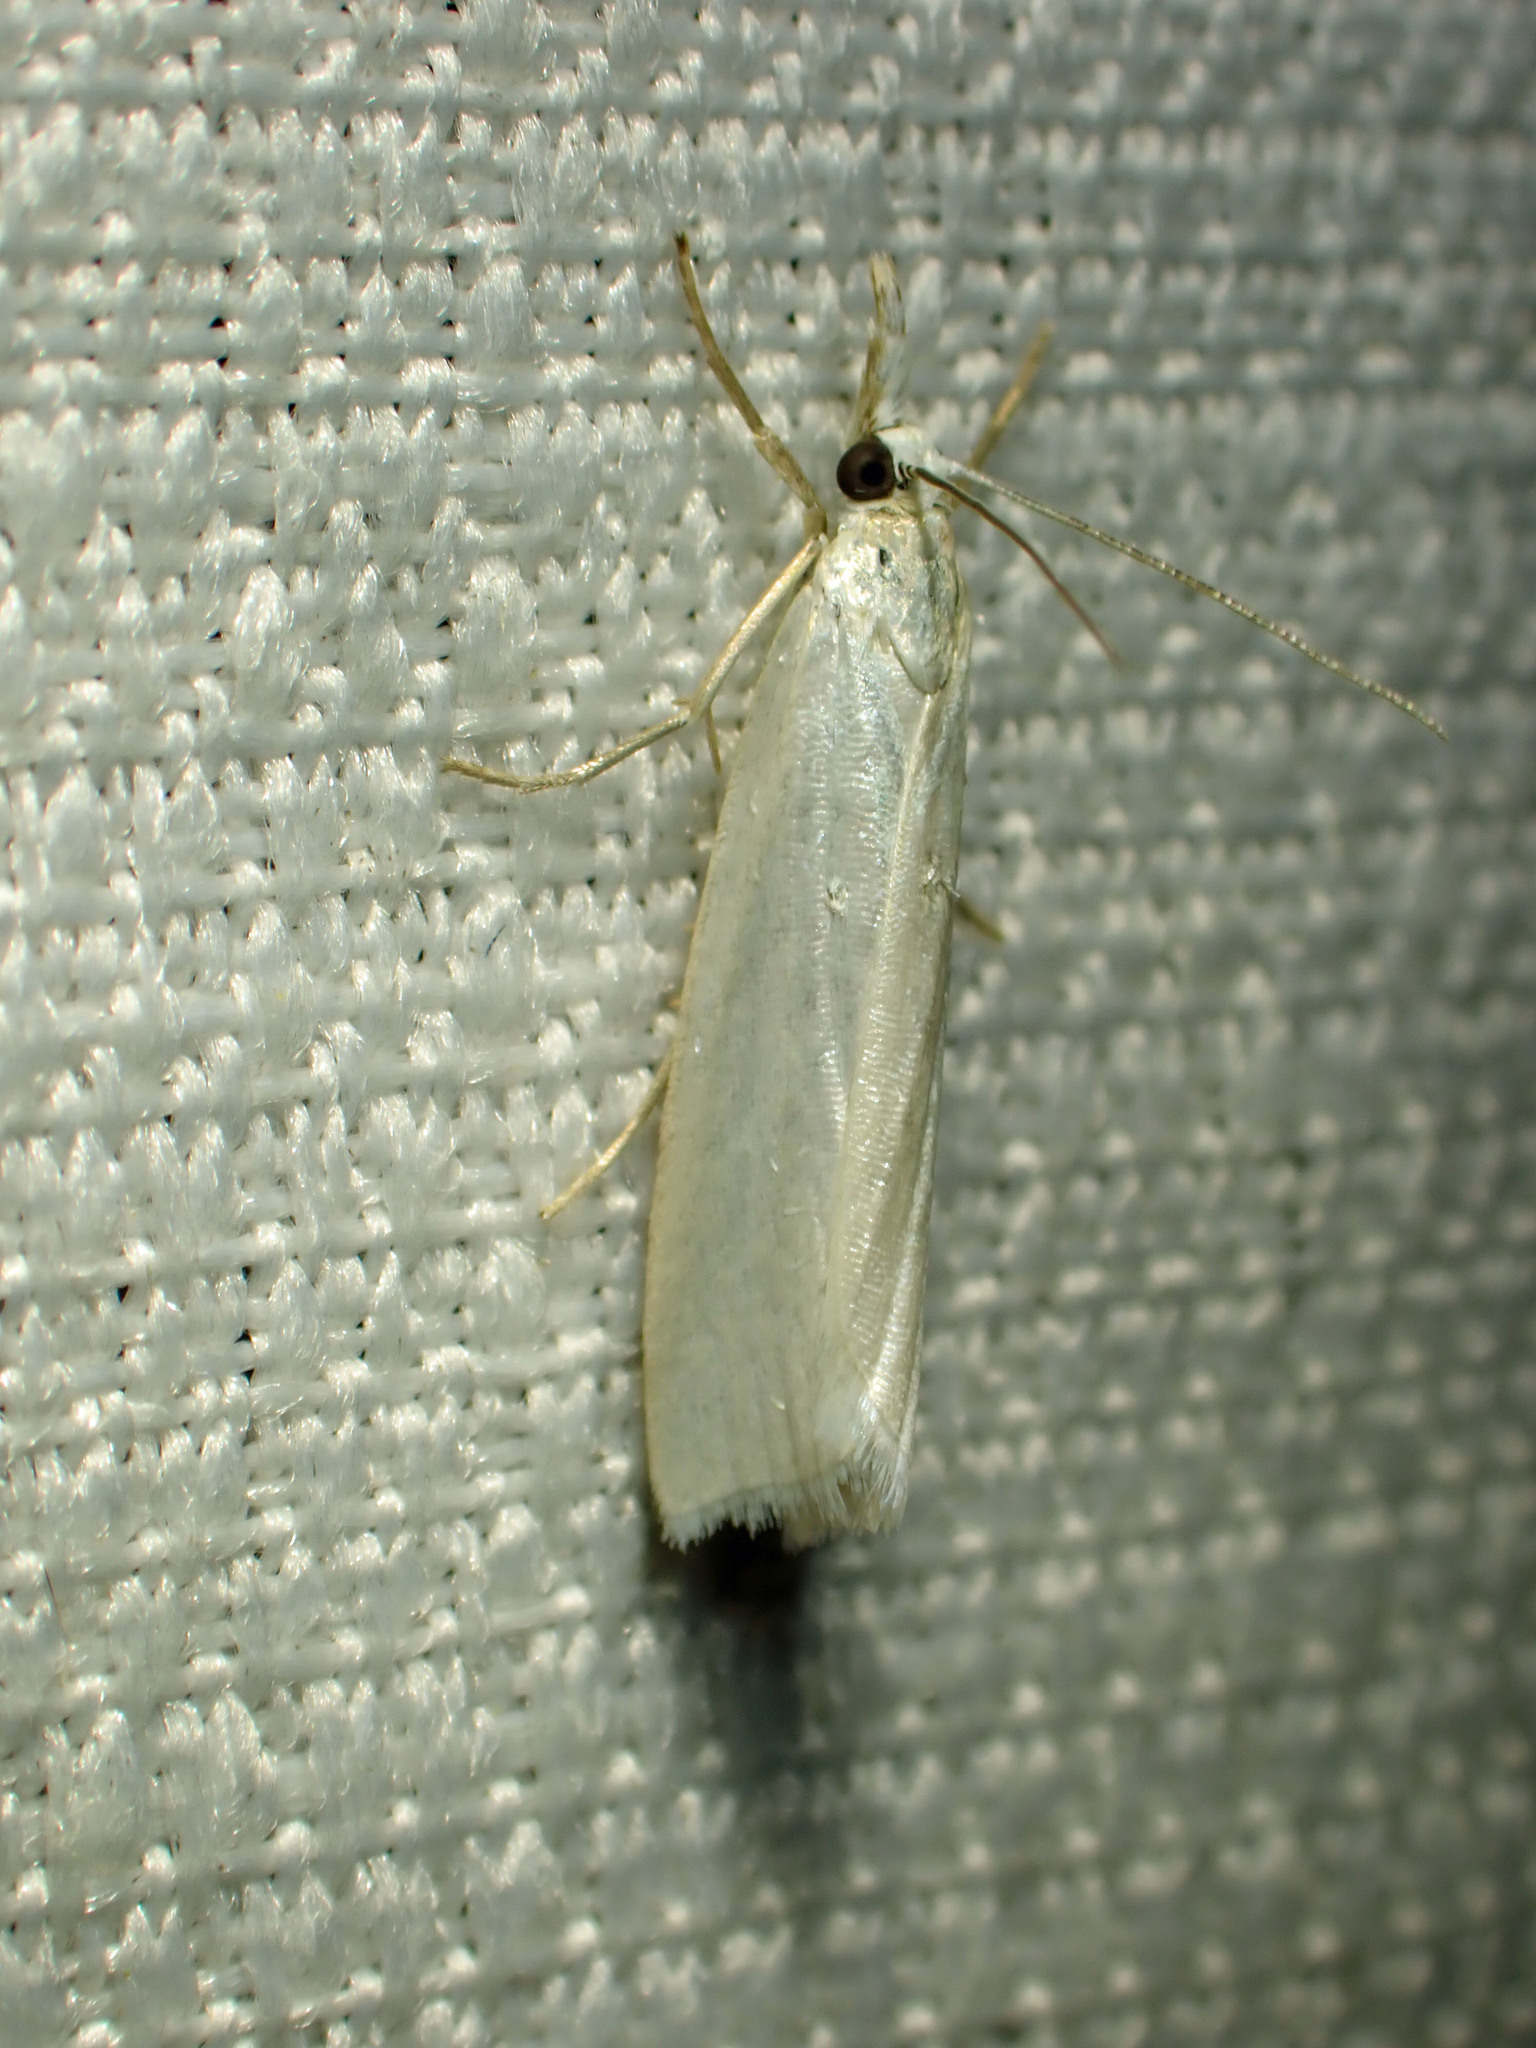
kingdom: Animalia
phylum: Arthropoda
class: Insecta
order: Lepidoptera
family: Crambidae
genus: Crambus
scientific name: Crambus perlellus
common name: Yellow satin veneer
